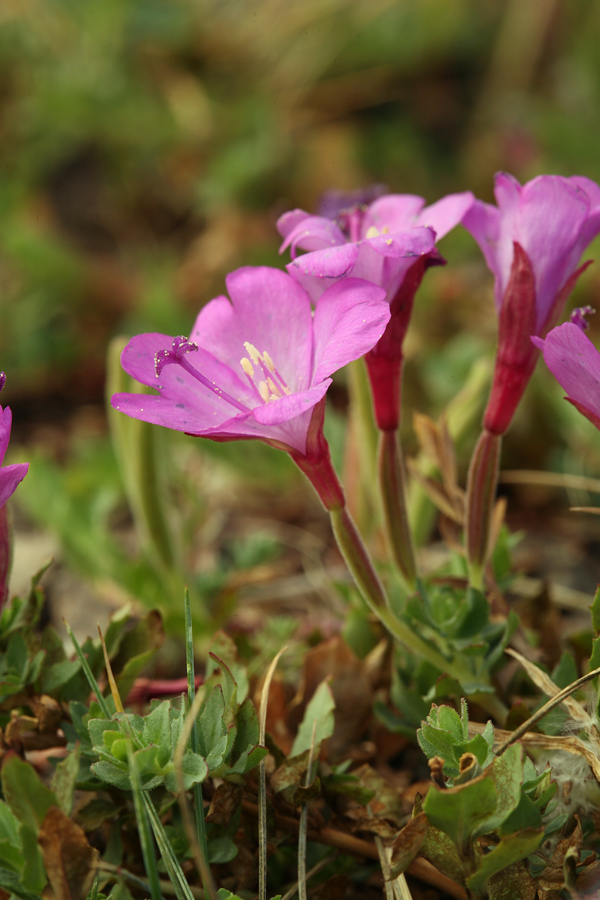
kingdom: Plantae
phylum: Tracheophyta
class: Magnoliopsida
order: Myrtales
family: Onagraceae
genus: Epilobium
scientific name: Epilobium obcordatum
